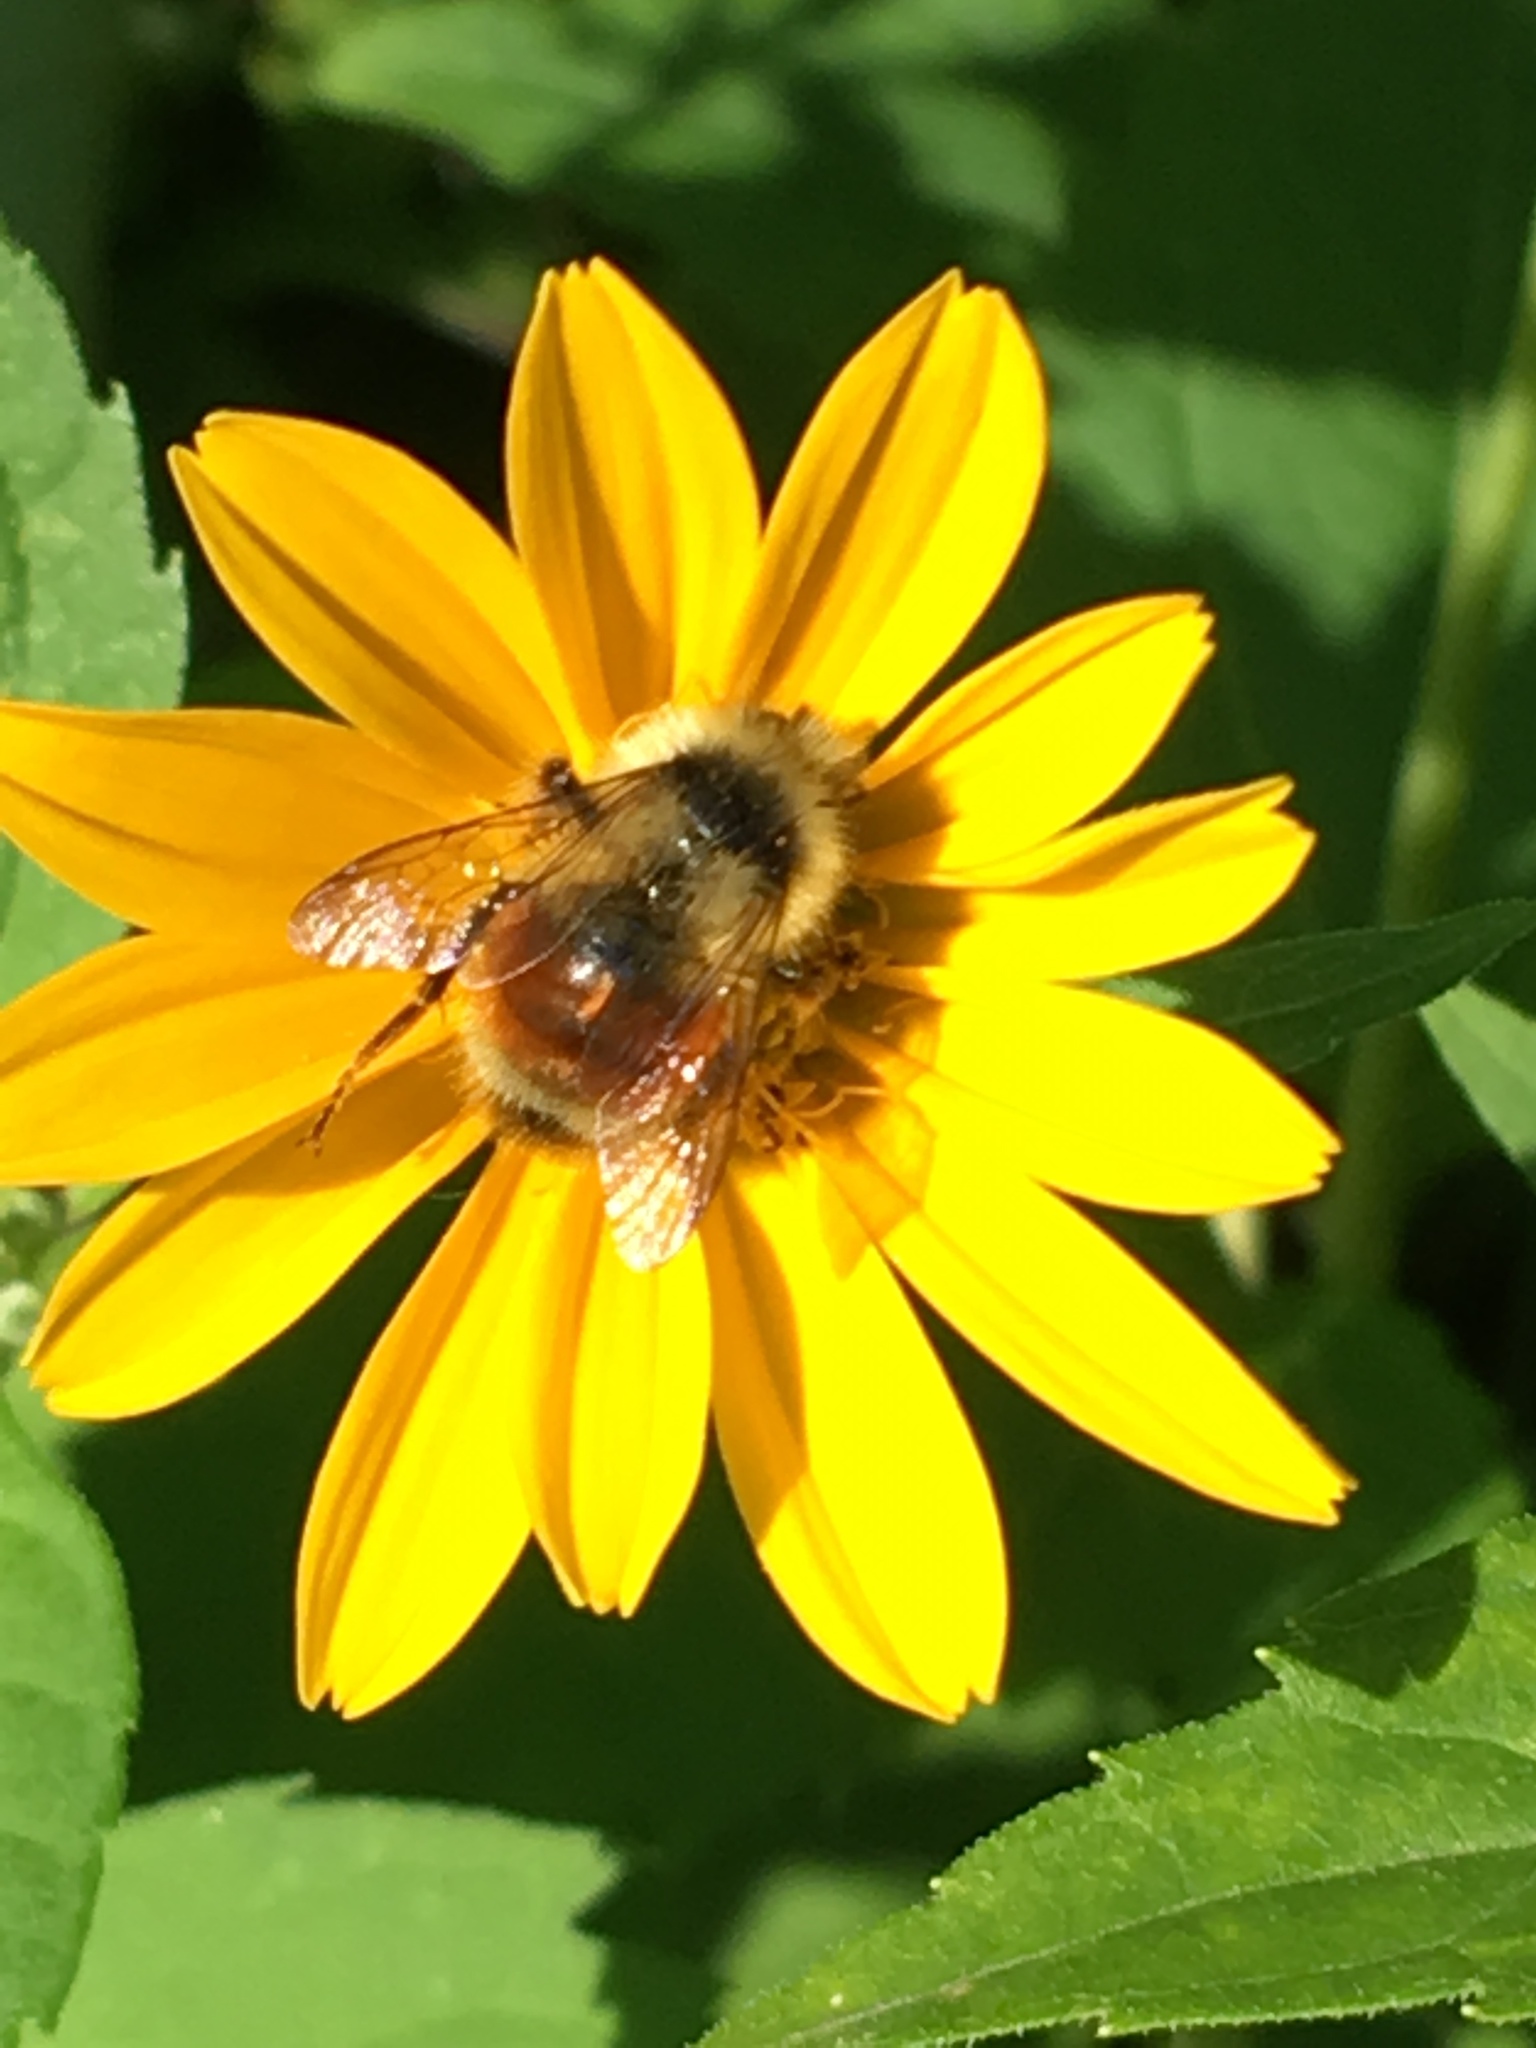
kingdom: Animalia
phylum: Arthropoda
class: Insecta
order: Hymenoptera
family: Apidae
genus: Bombus
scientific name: Bombus ternarius
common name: Tri-colored bumble bee
